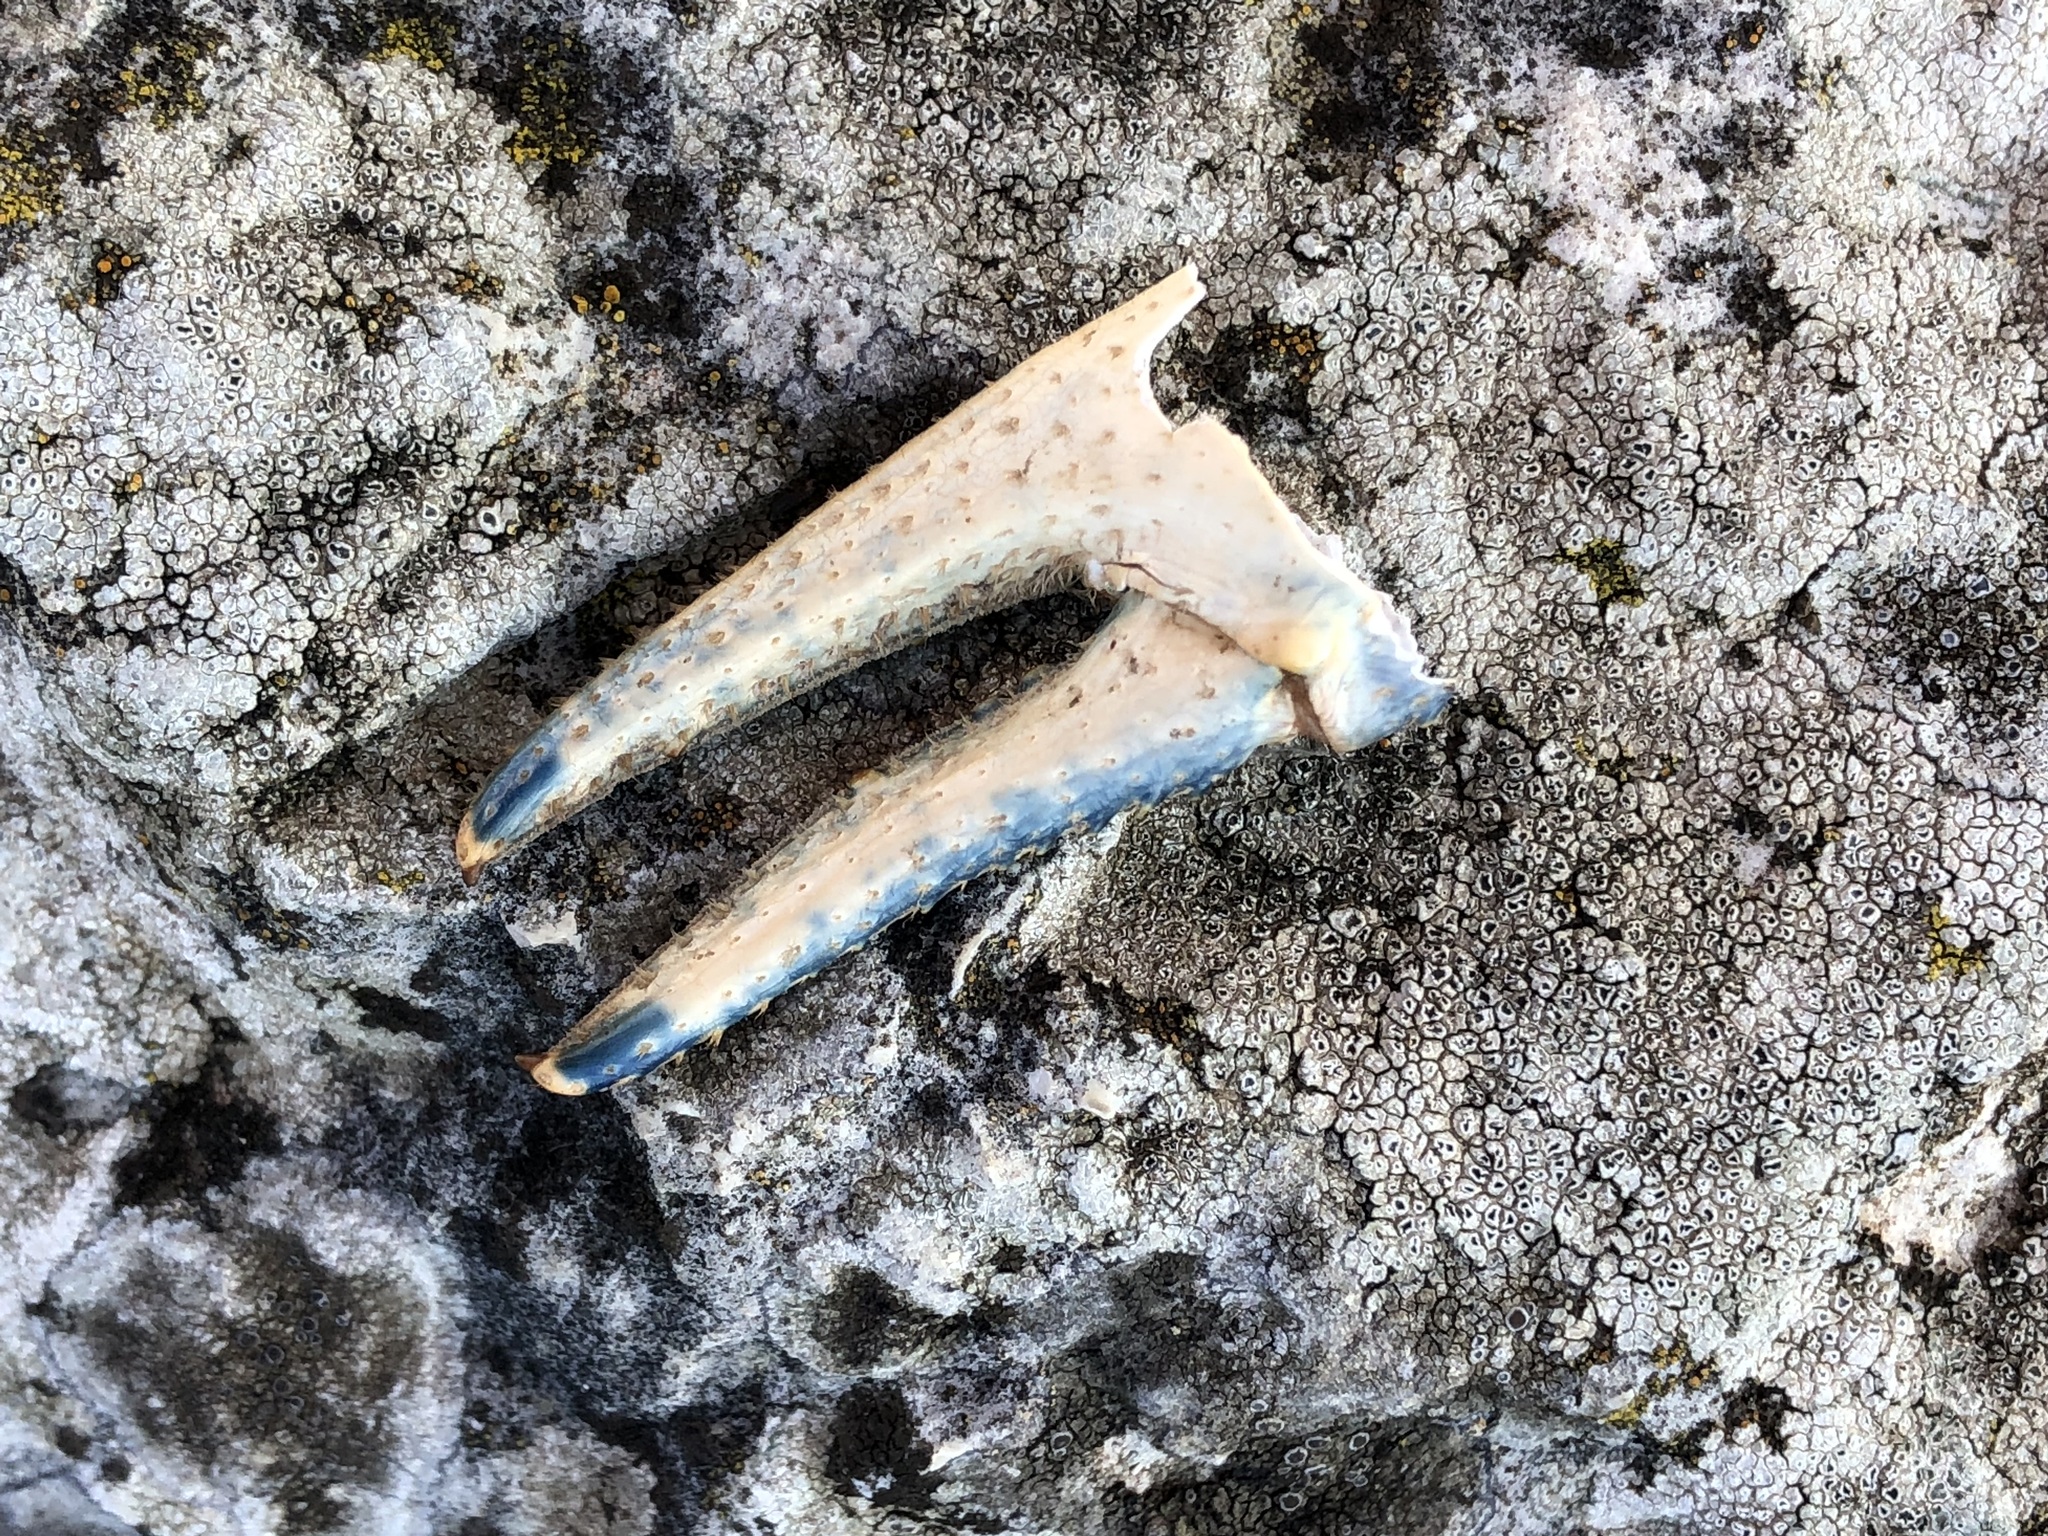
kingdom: Animalia
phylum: Arthropoda
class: Malacostraca
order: Decapoda
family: Cambaridae
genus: Faxonius
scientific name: Faxonius limosus
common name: American crayfish
